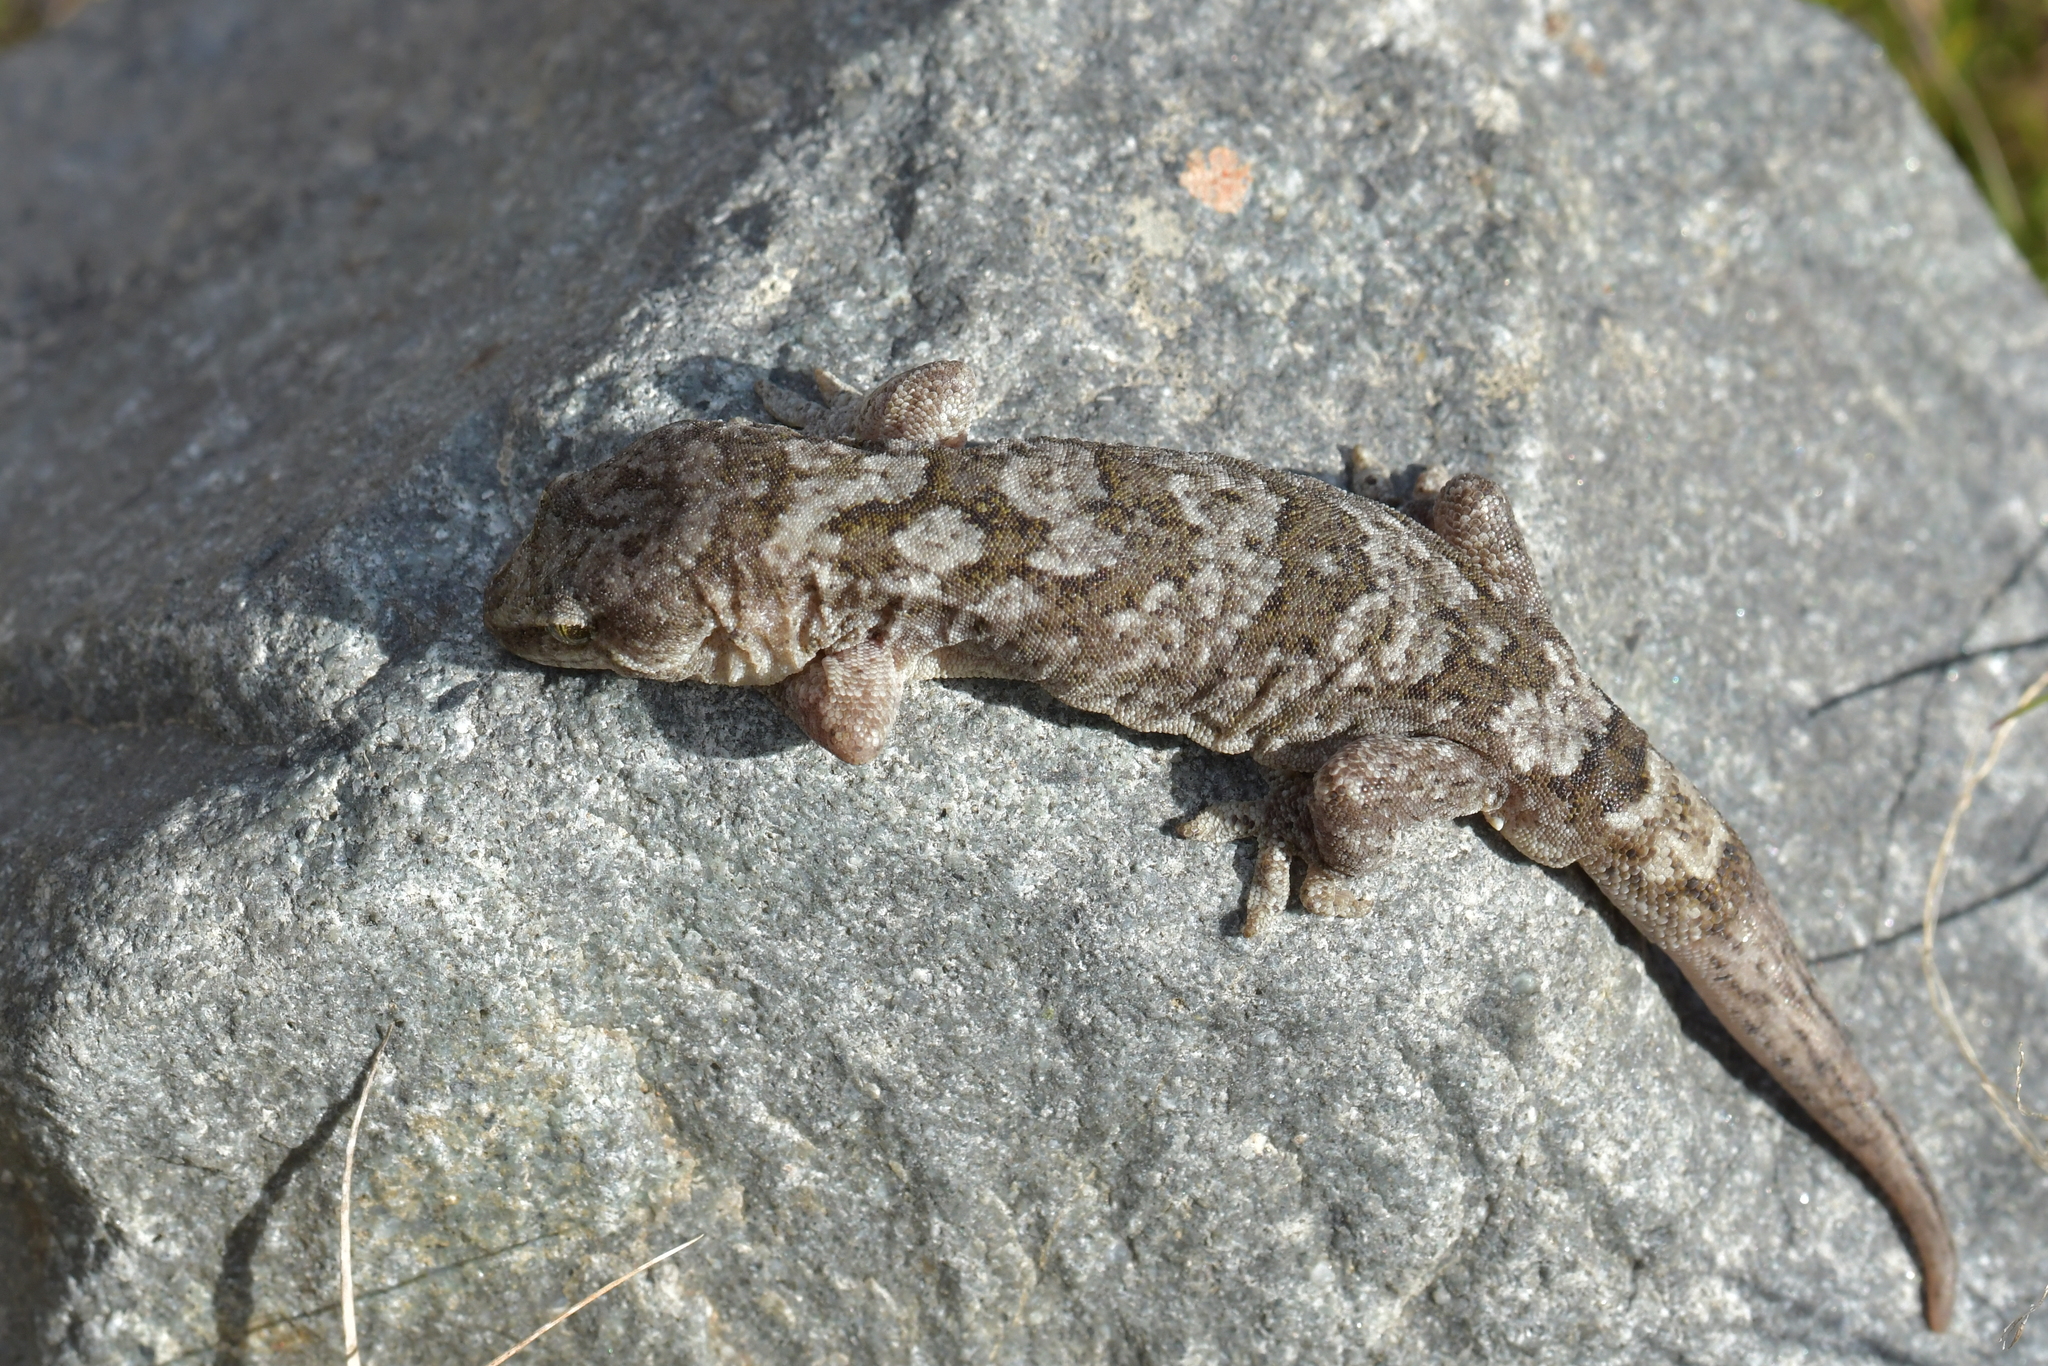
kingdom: Animalia
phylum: Chordata
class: Squamata
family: Diplodactylidae
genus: Woodworthia
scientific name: Woodworthia
